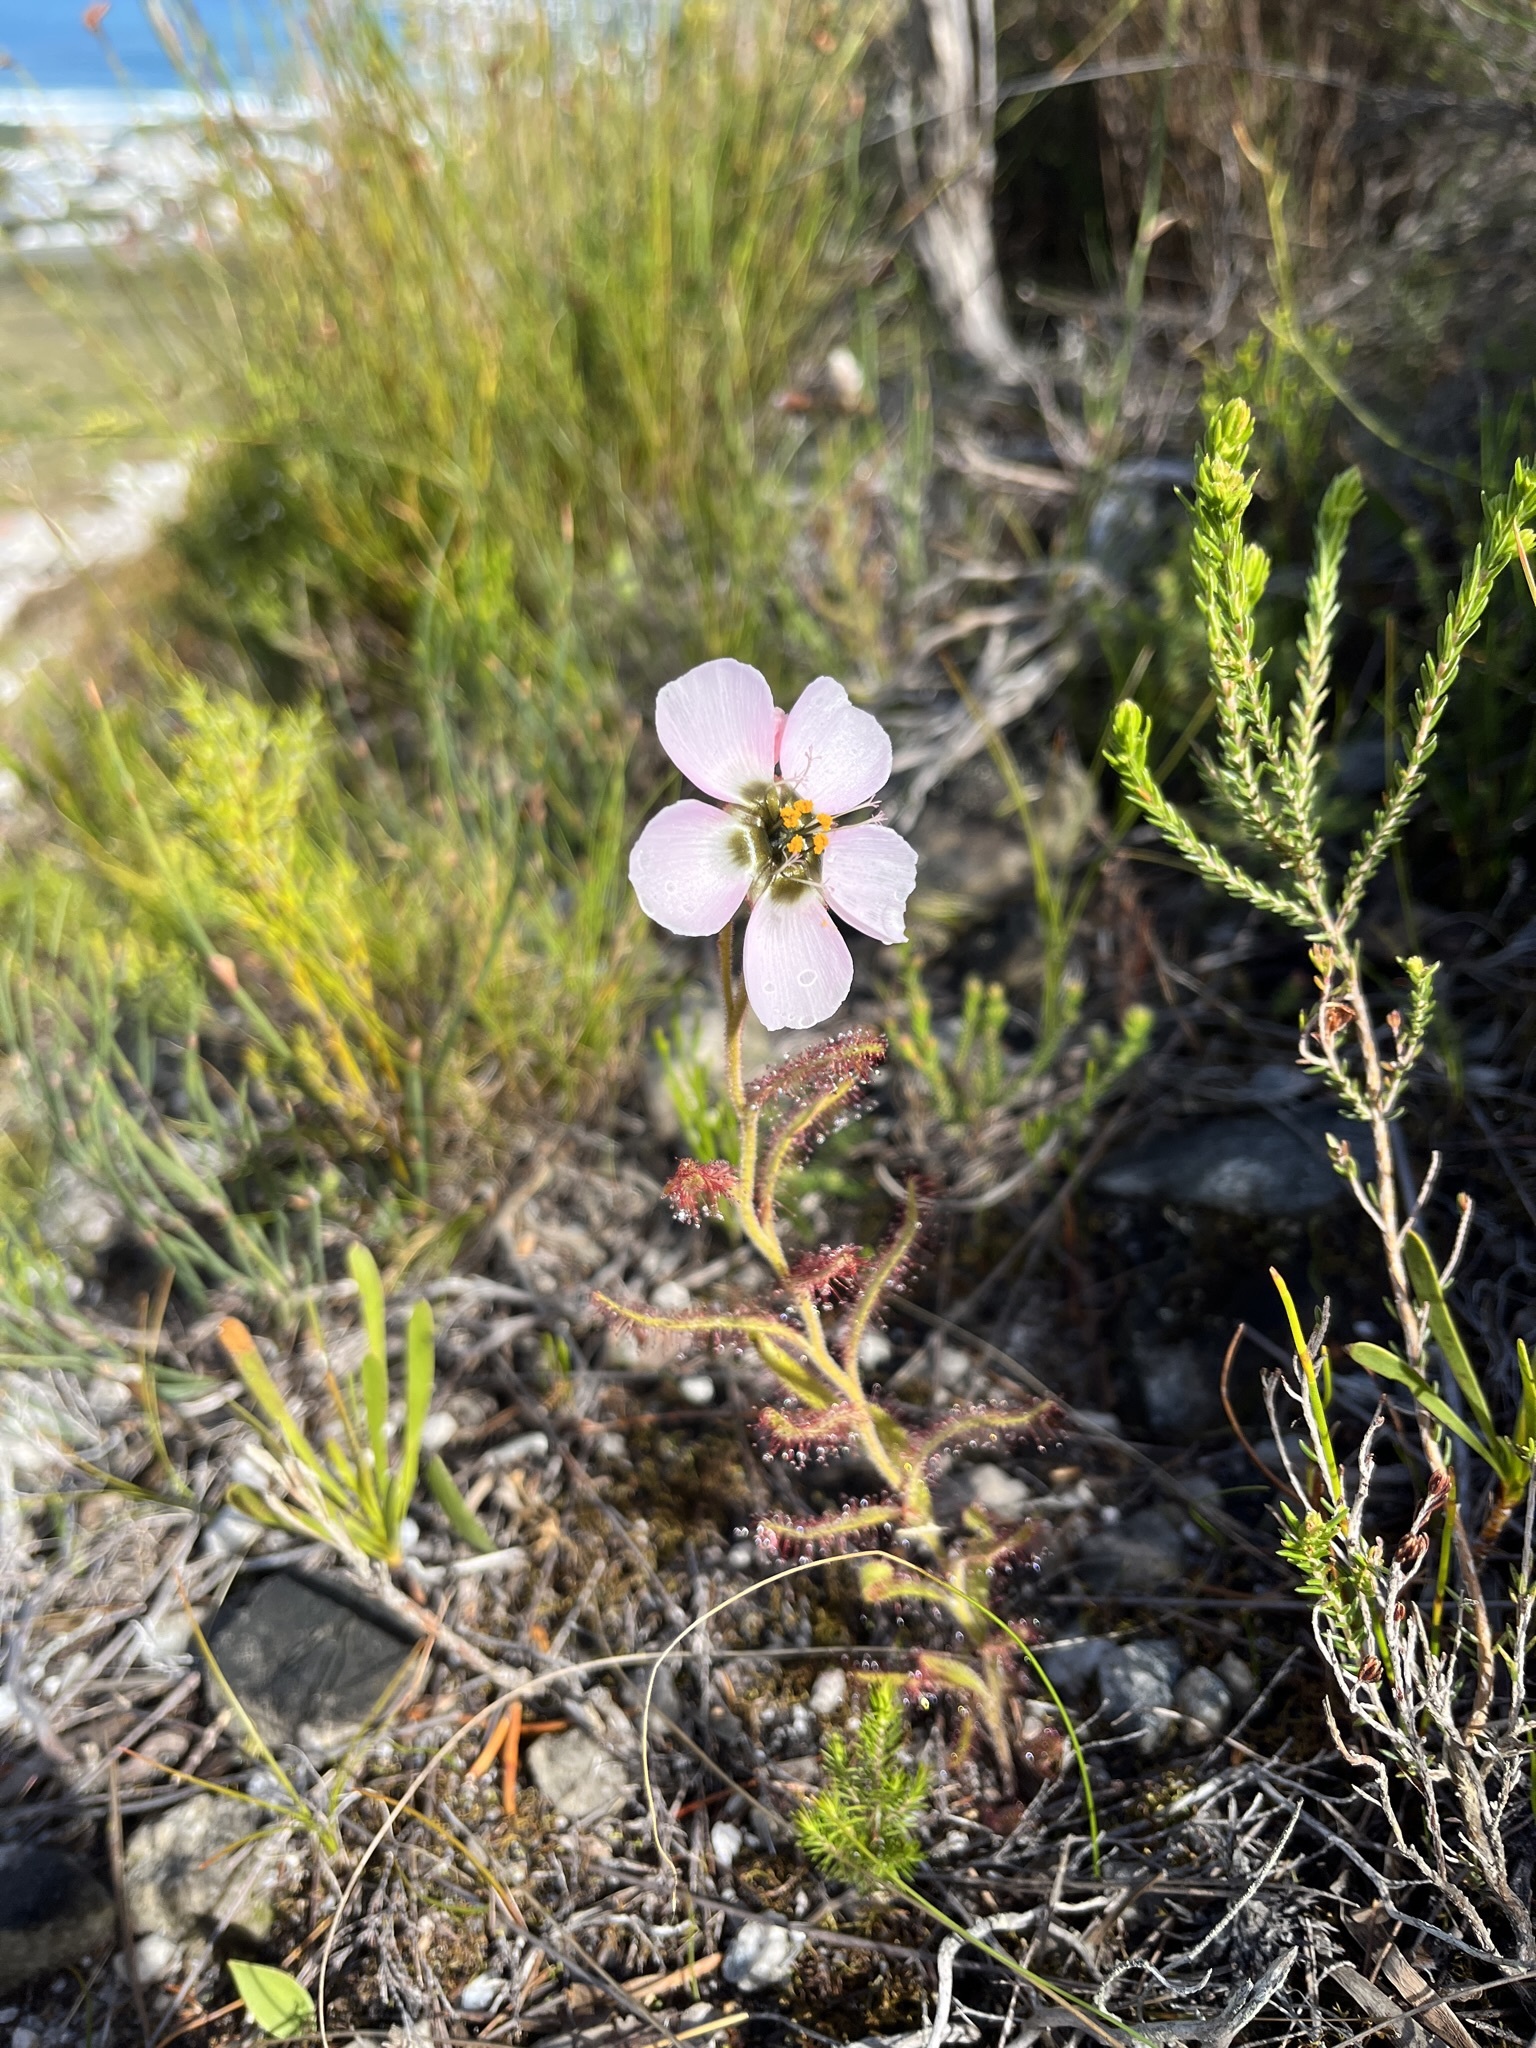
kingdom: Plantae
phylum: Tracheophyta
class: Magnoliopsida
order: Caryophyllales
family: Droseraceae
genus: Drosera
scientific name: Drosera cistiflora
